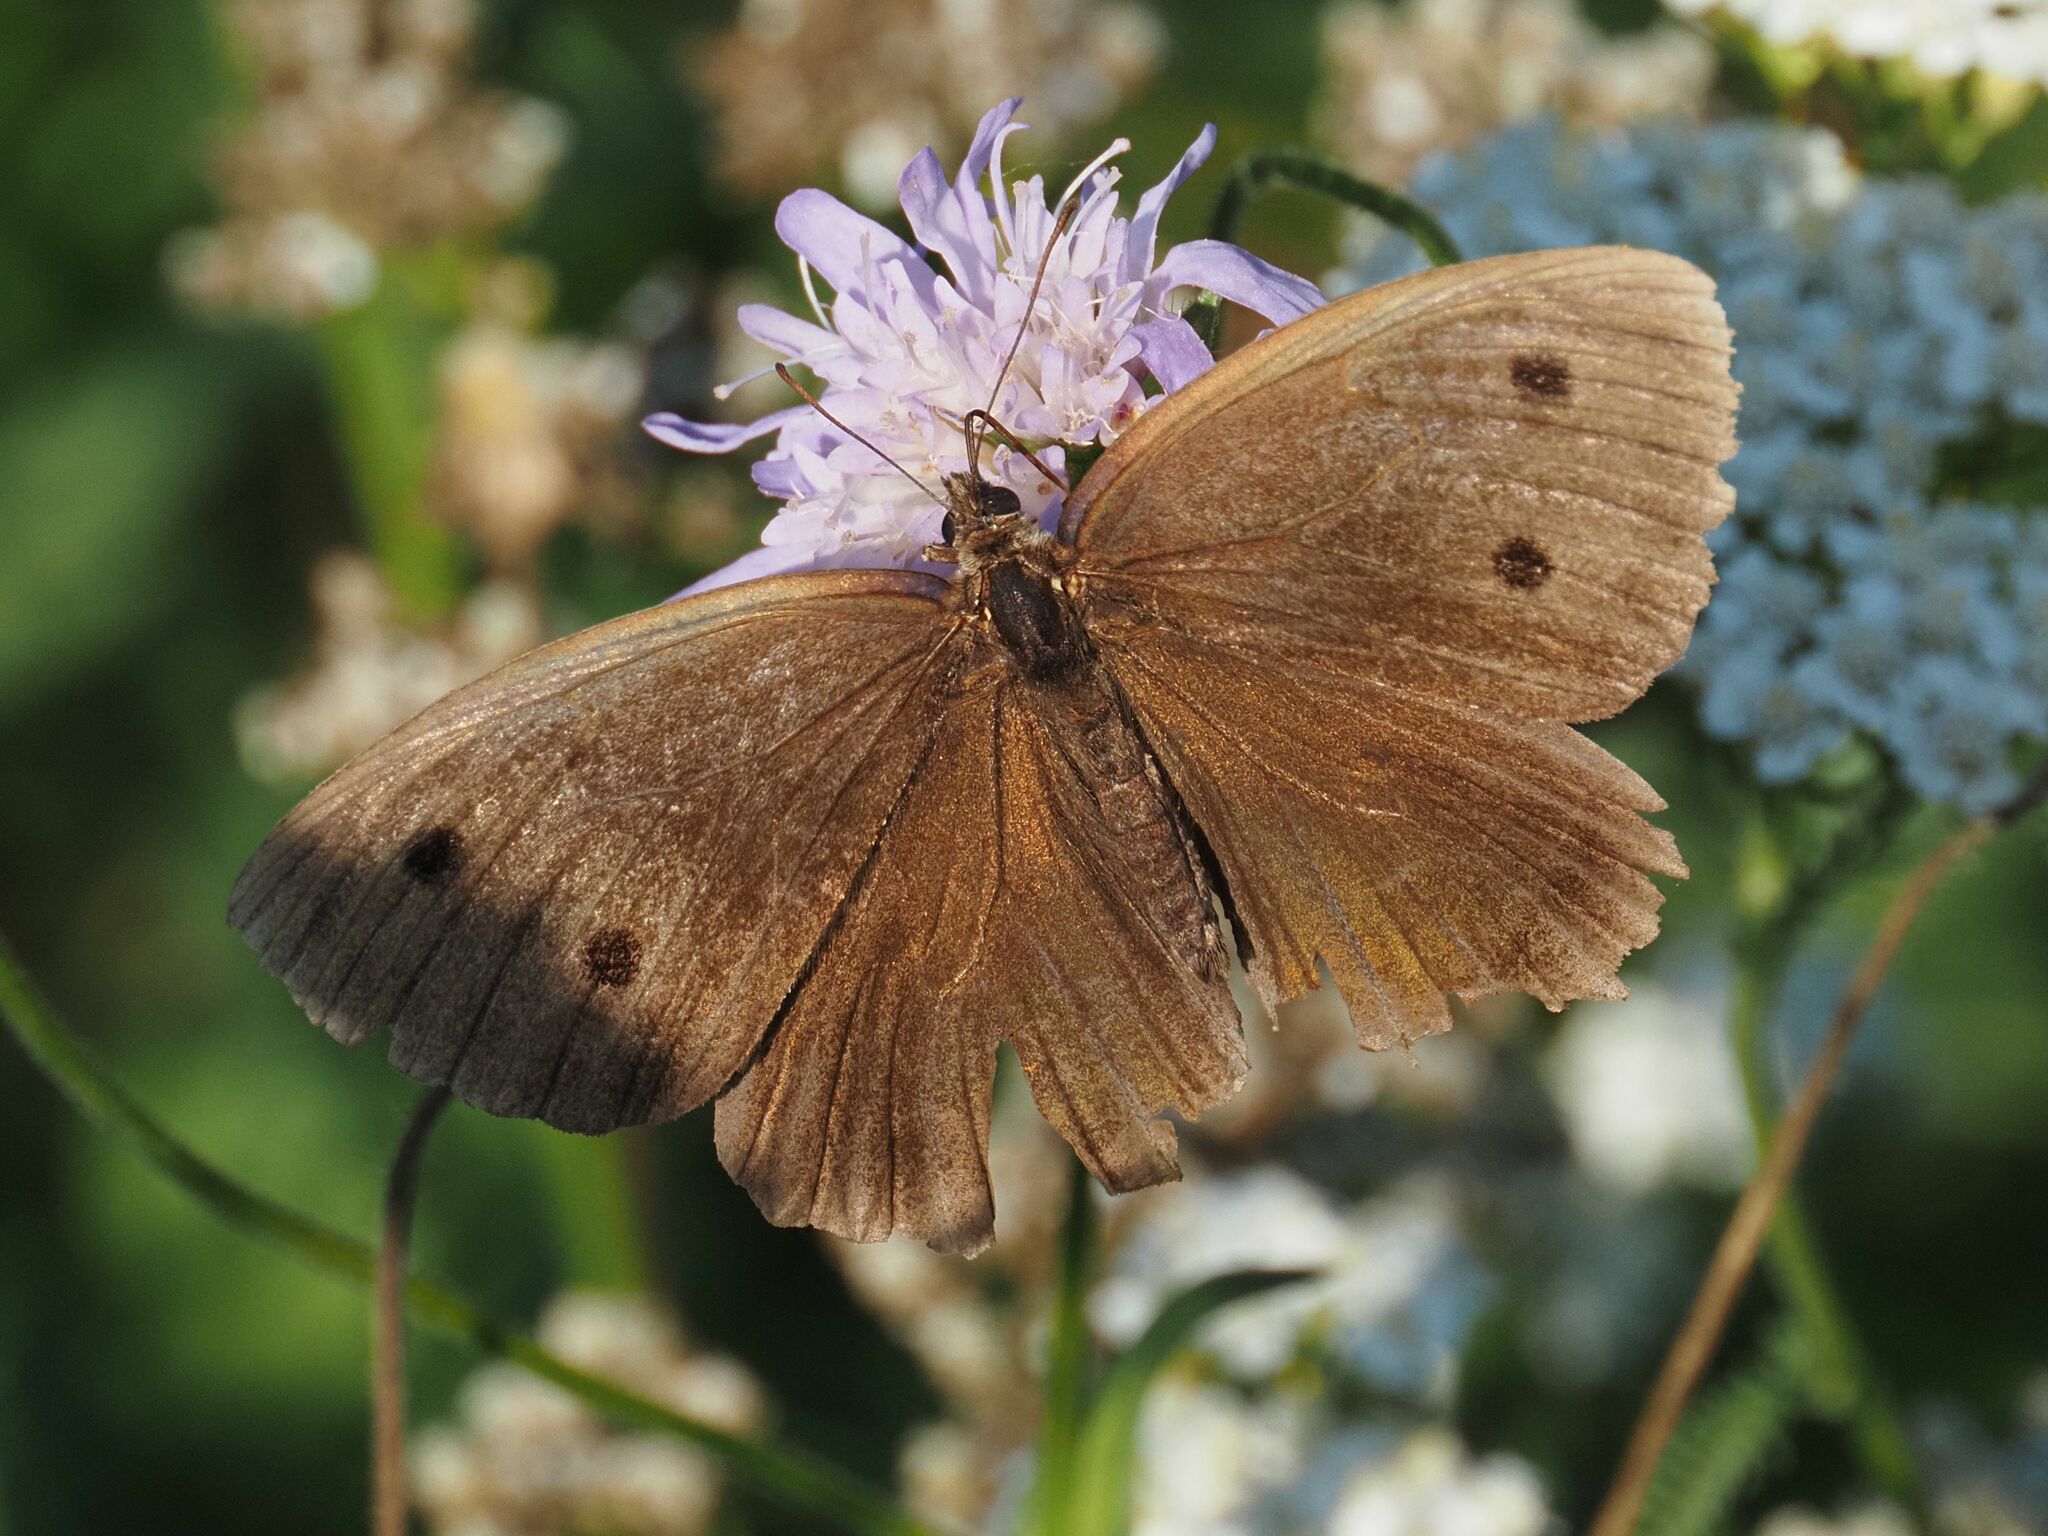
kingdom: Animalia
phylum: Arthropoda
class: Insecta
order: Lepidoptera
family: Nymphalidae
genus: Minois
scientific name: Minois dryas
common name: Dryad
